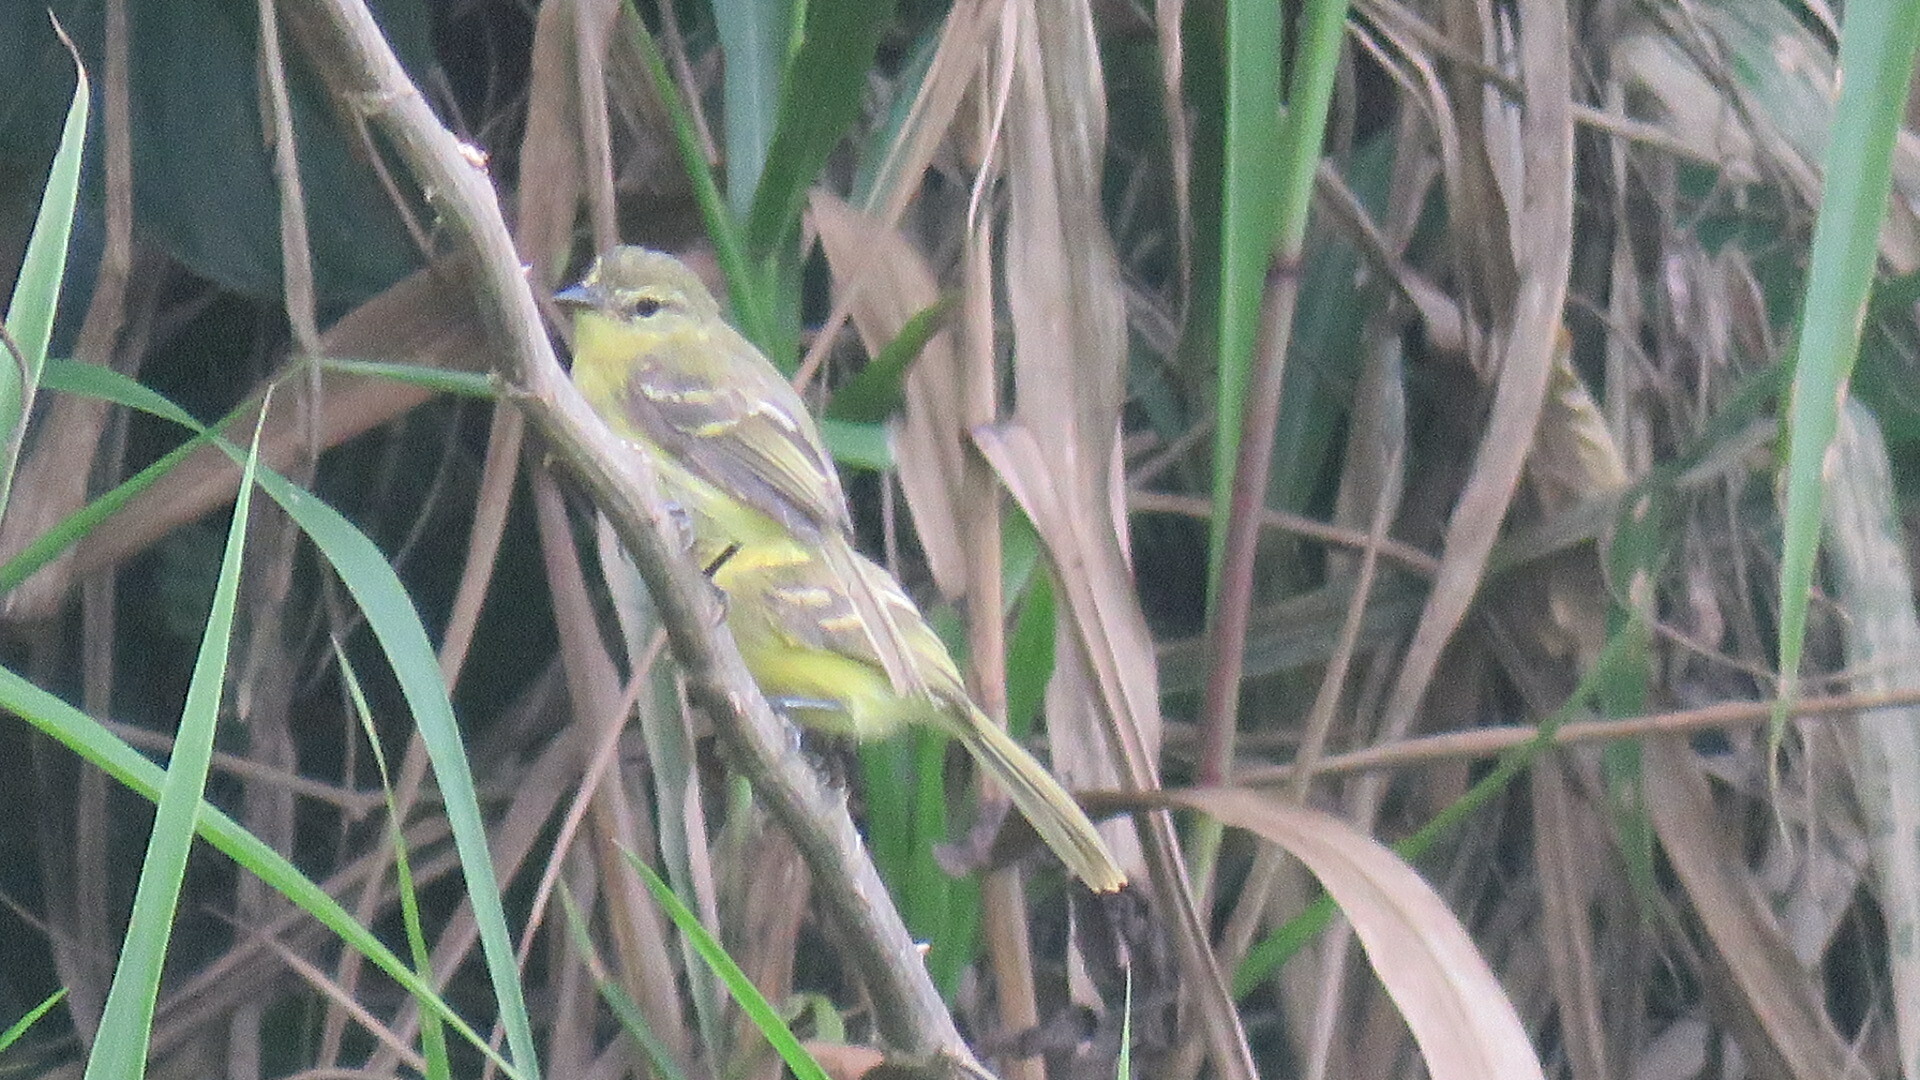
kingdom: Animalia
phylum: Chordata
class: Aves
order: Passeriformes
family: Tyrannidae
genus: Capsiempis
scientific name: Capsiempis flaveola
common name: Yellow tyrannulet
